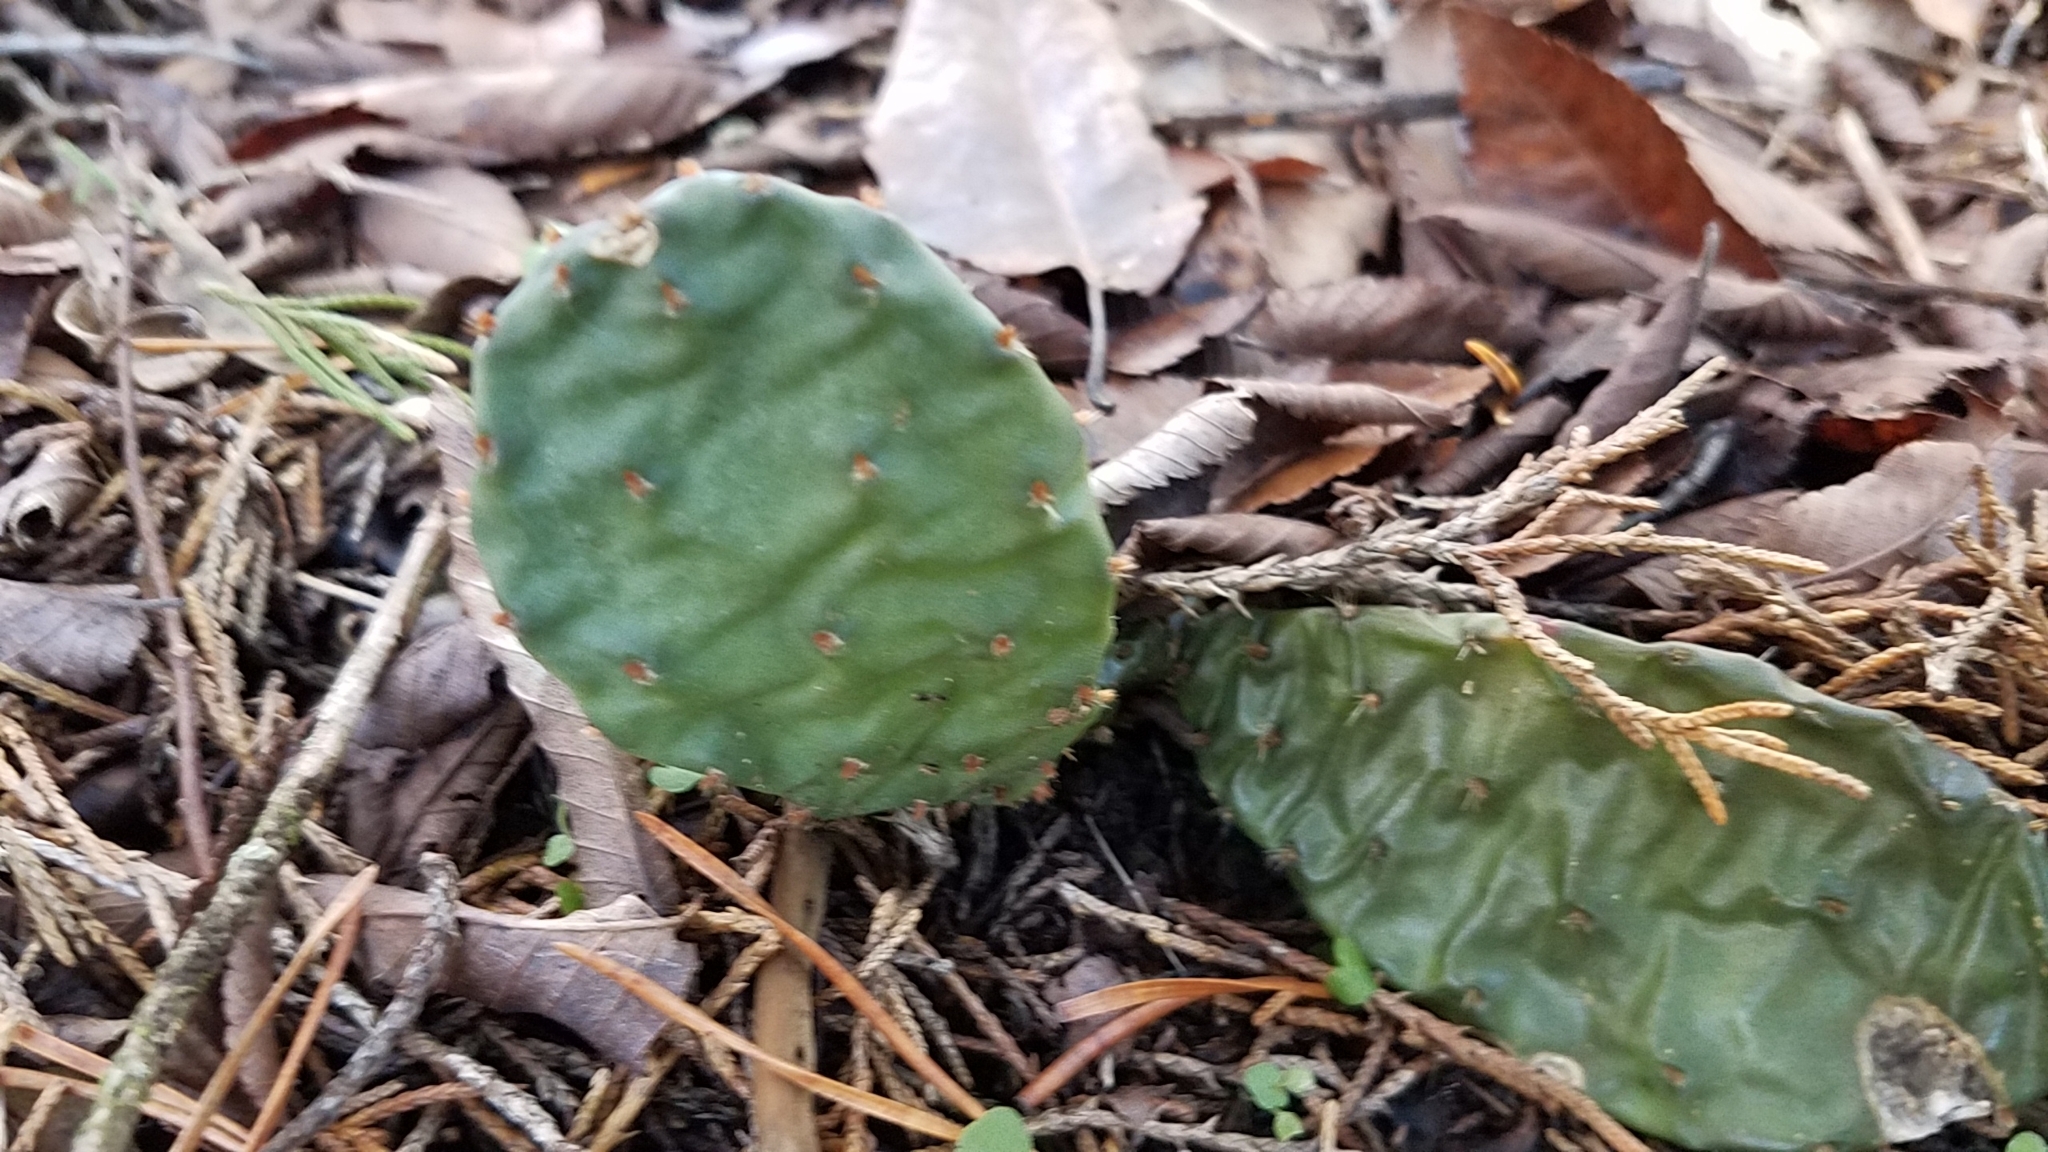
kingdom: Plantae
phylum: Tracheophyta
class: Magnoliopsida
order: Caryophyllales
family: Cactaceae
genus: Opuntia
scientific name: Opuntia humifusa
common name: Eastern prickly-pear
